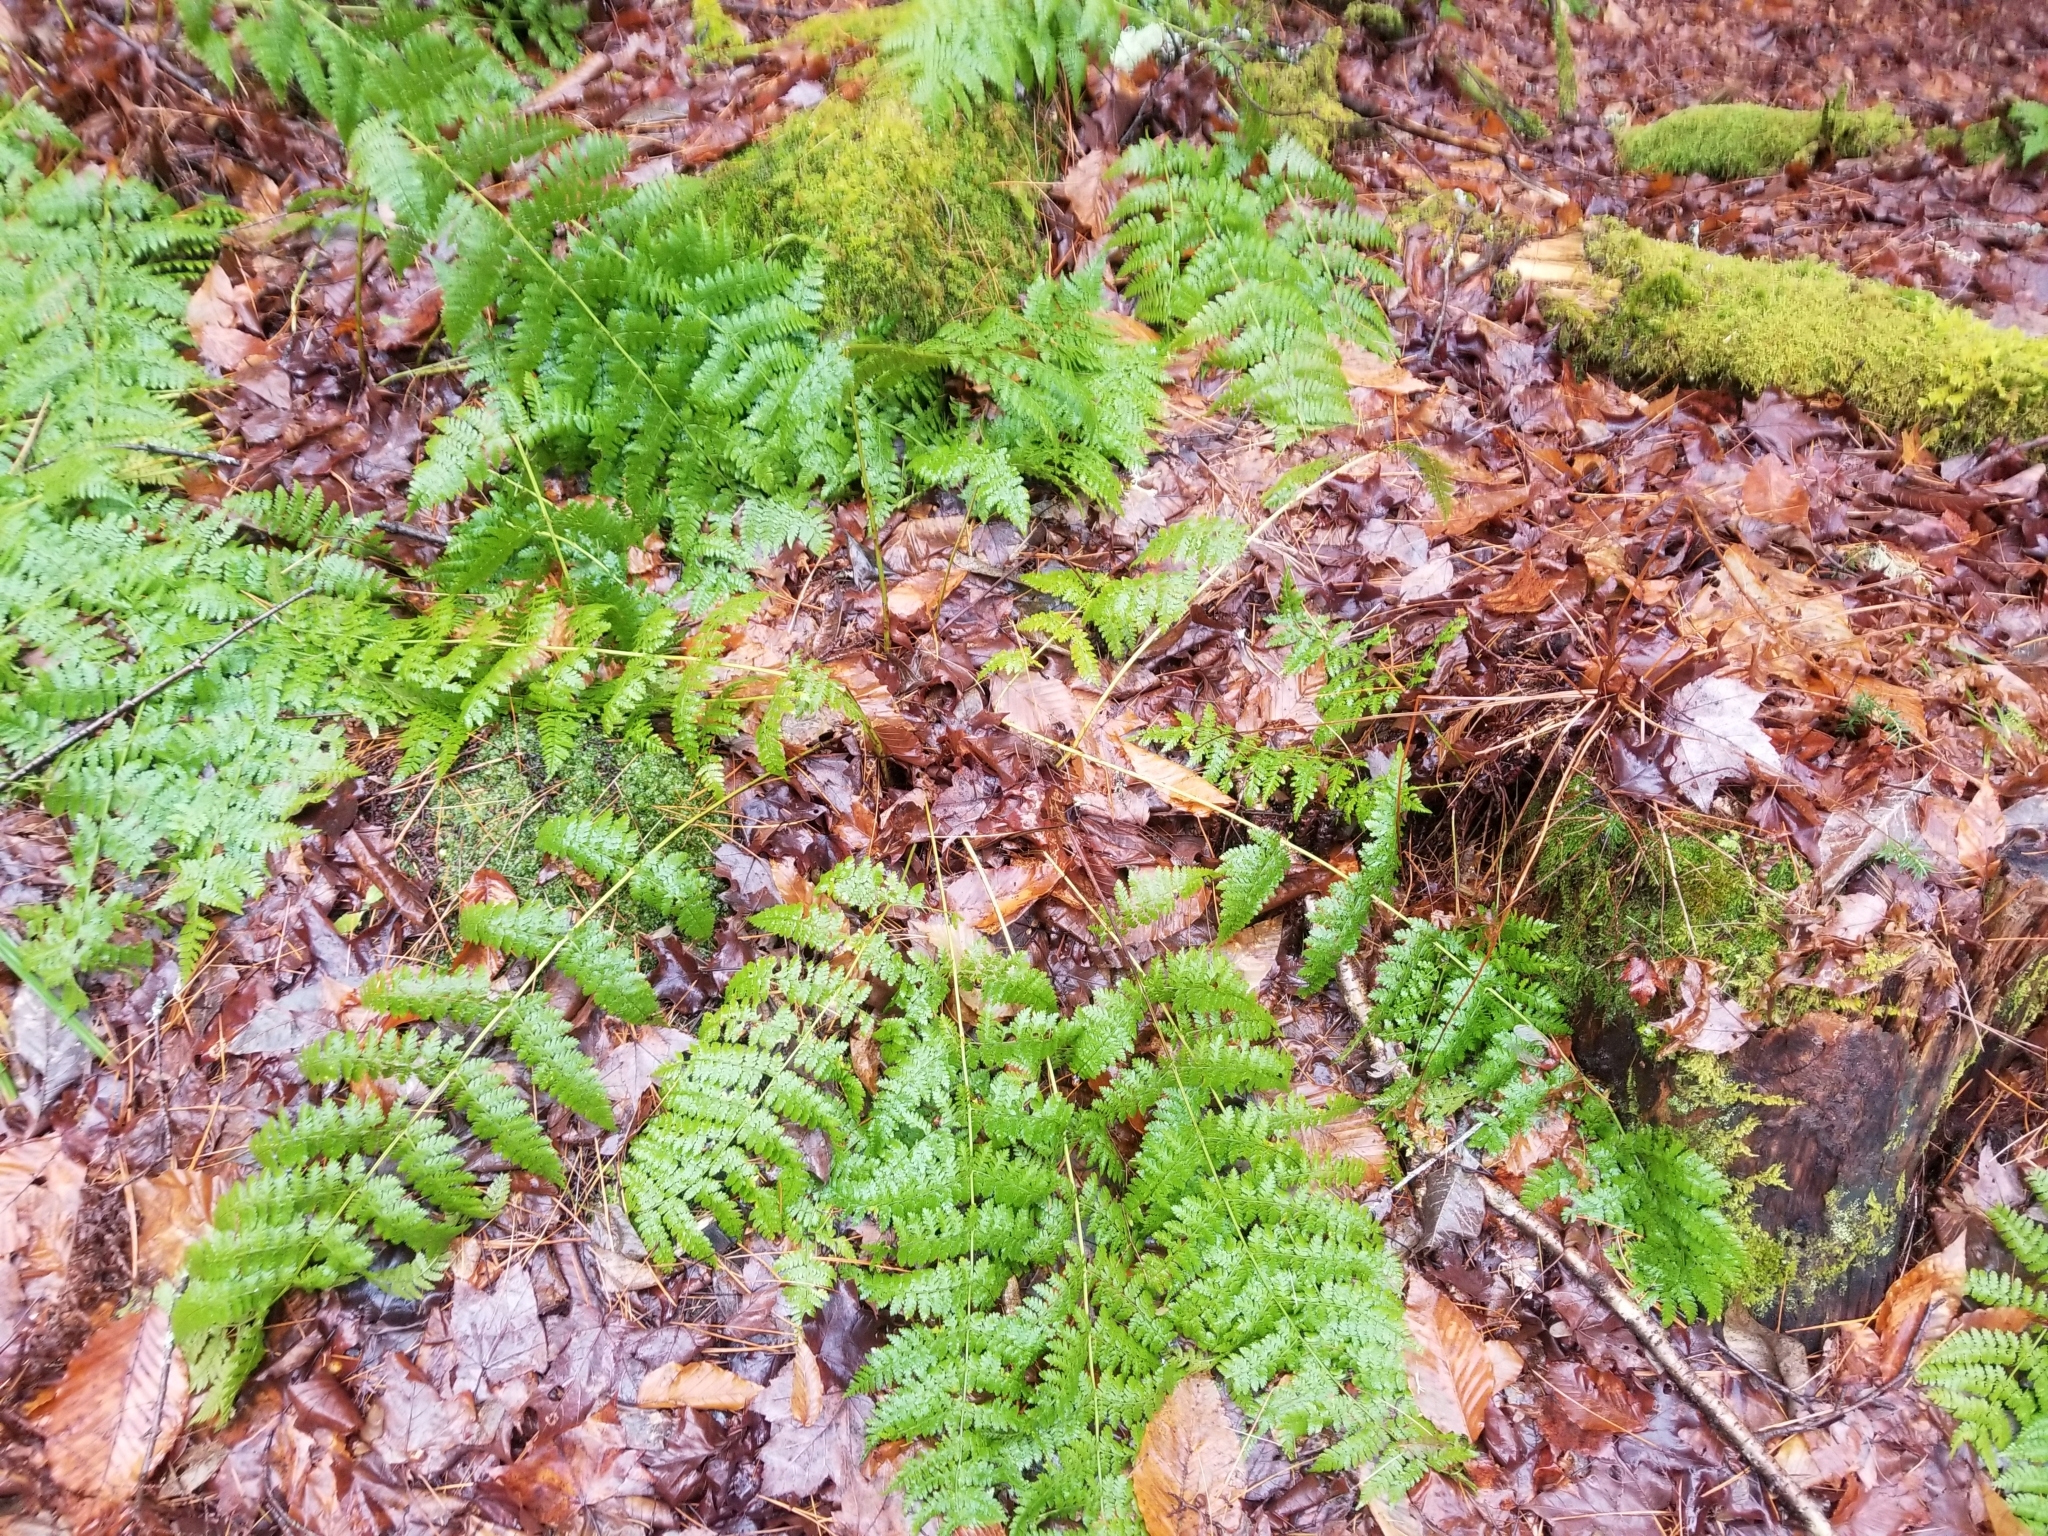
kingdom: Plantae
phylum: Tracheophyta
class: Polypodiopsida
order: Polypodiales
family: Dryopteridaceae
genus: Dryopteris
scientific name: Dryopteris intermedia
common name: Evergreen wood fern
